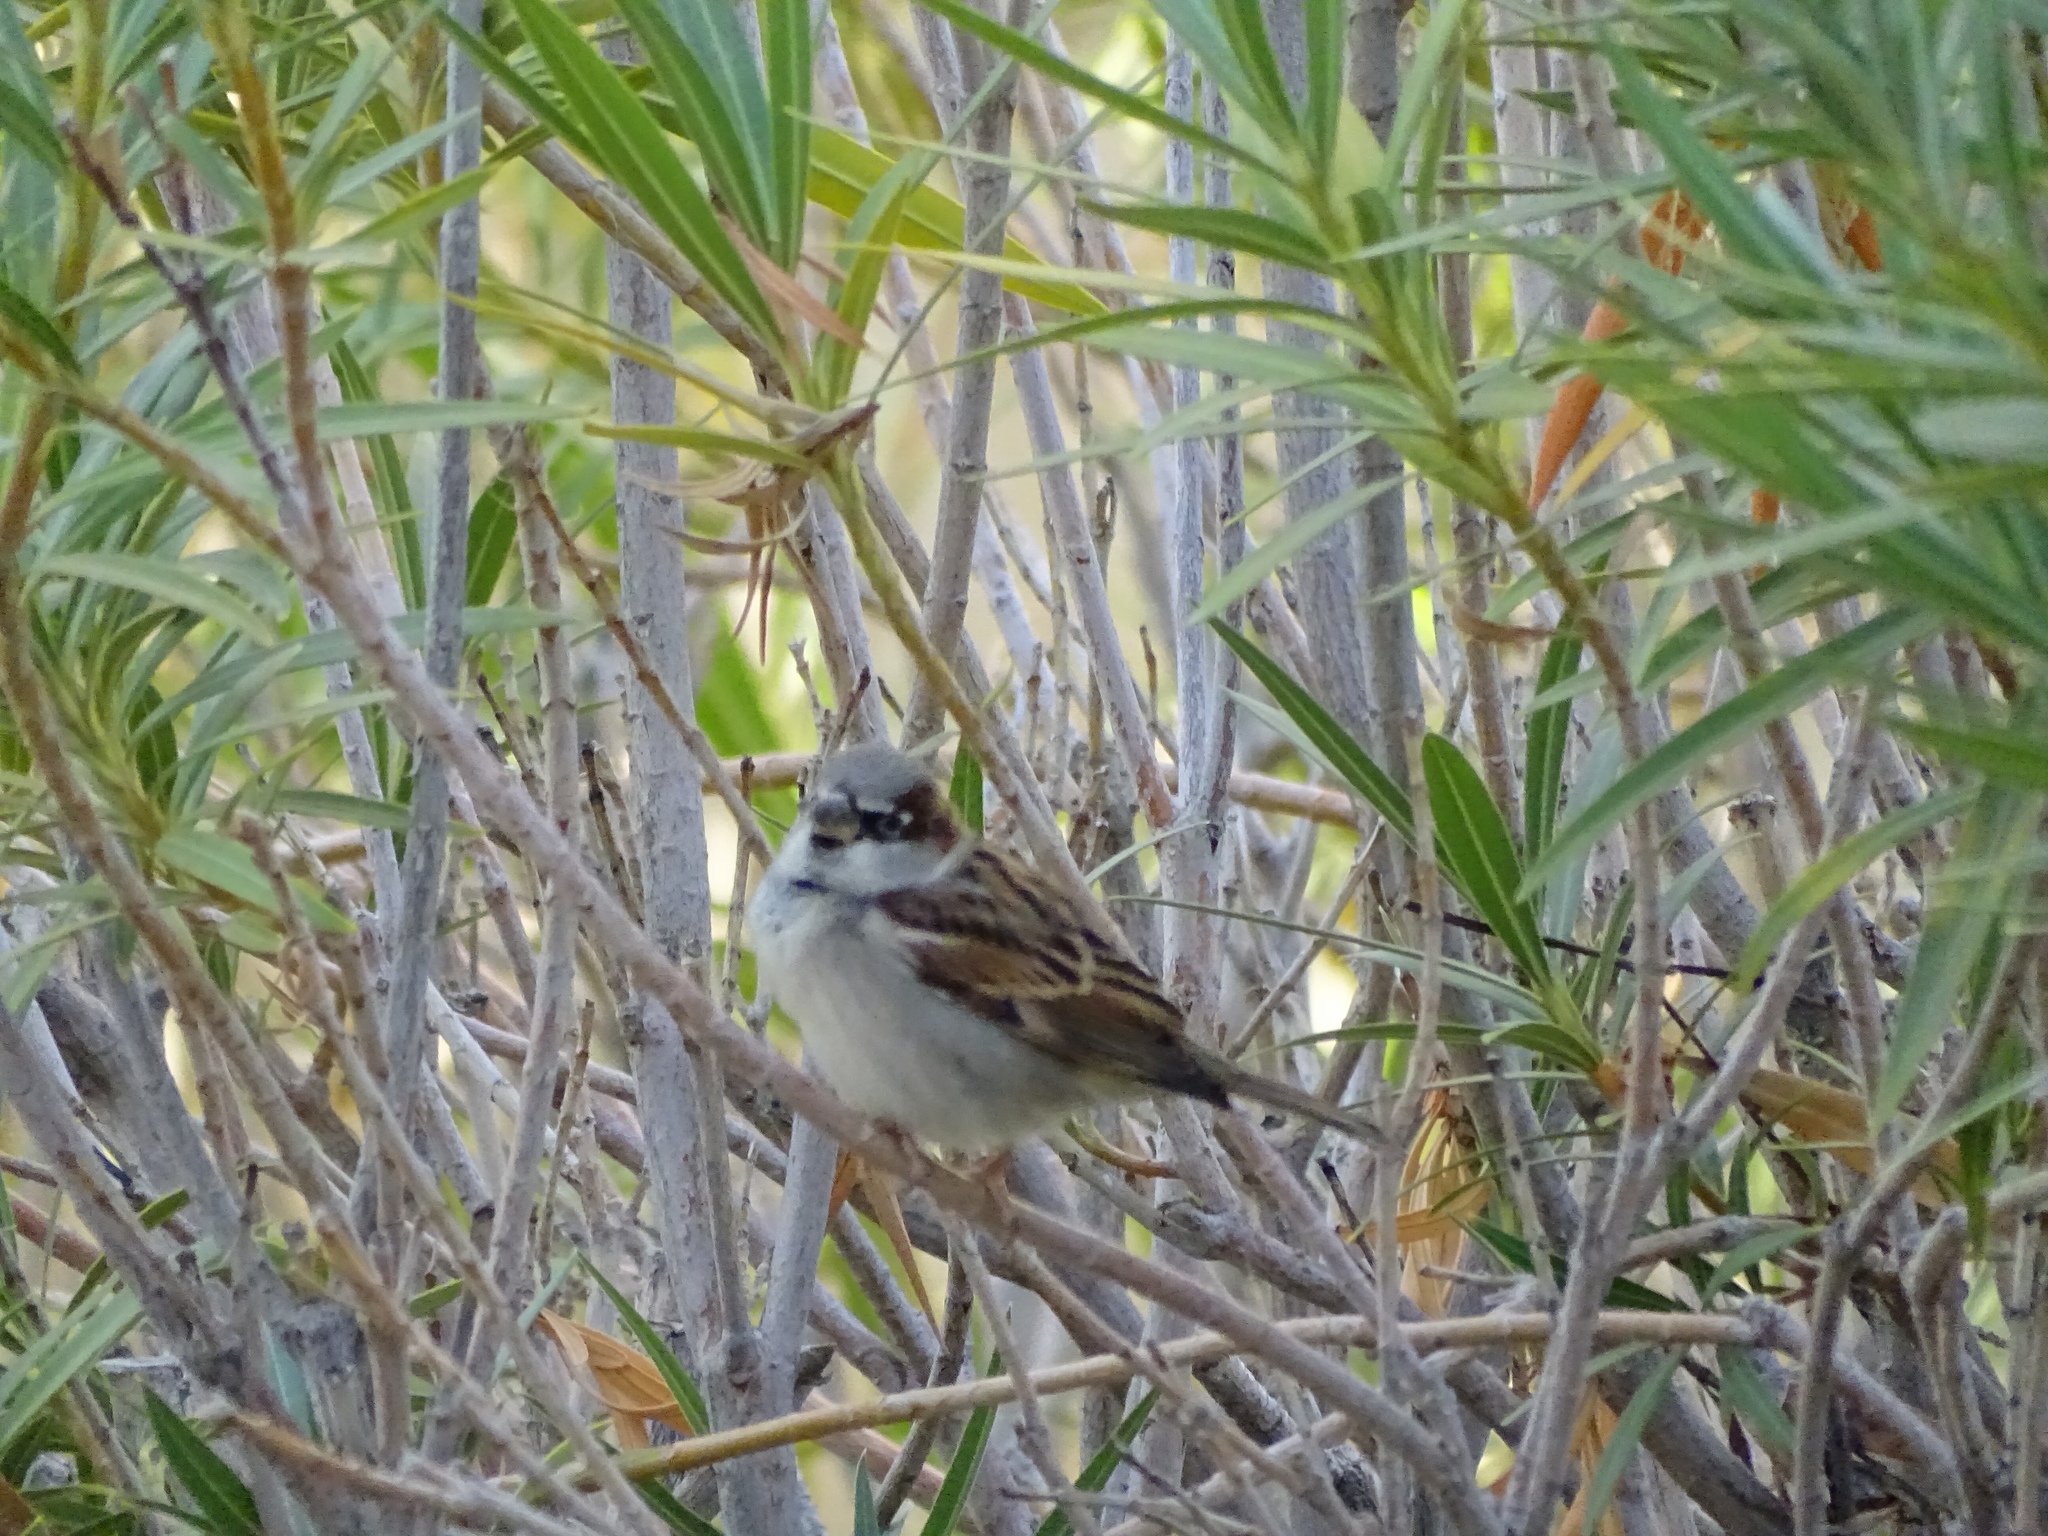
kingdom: Animalia
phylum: Chordata
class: Aves
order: Passeriformes
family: Passeridae
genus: Passer
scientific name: Passer domesticus
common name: House sparrow
